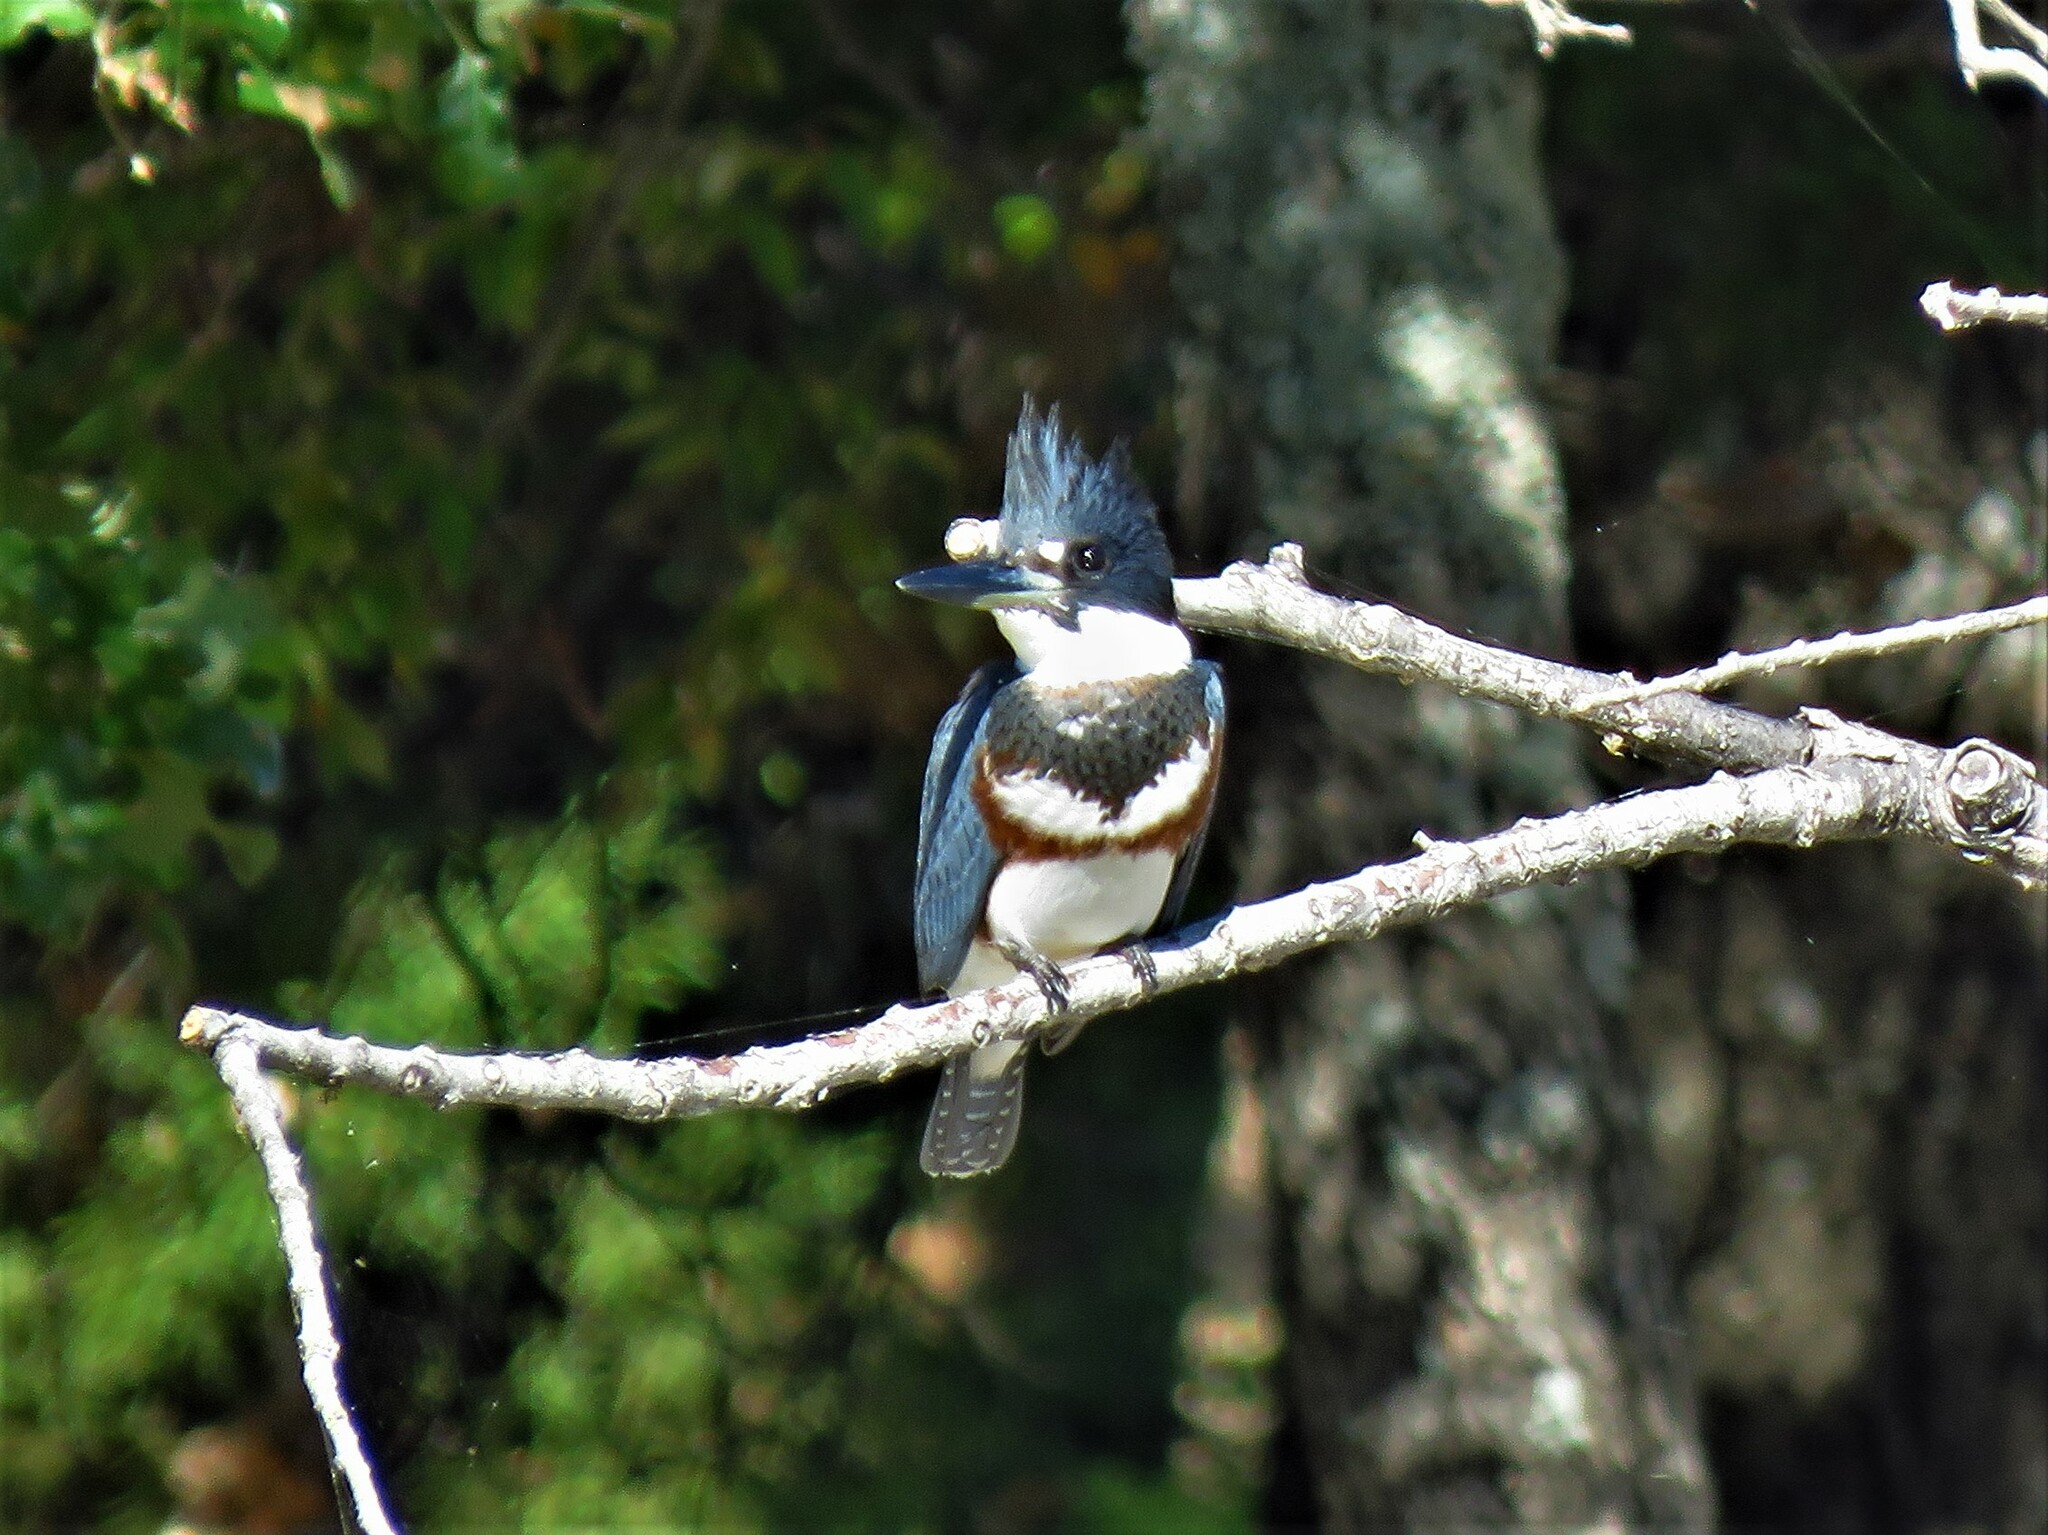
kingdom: Animalia
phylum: Chordata
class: Aves
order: Coraciiformes
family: Alcedinidae
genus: Megaceryle
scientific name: Megaceryle alcyon
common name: Belted kingfisher
